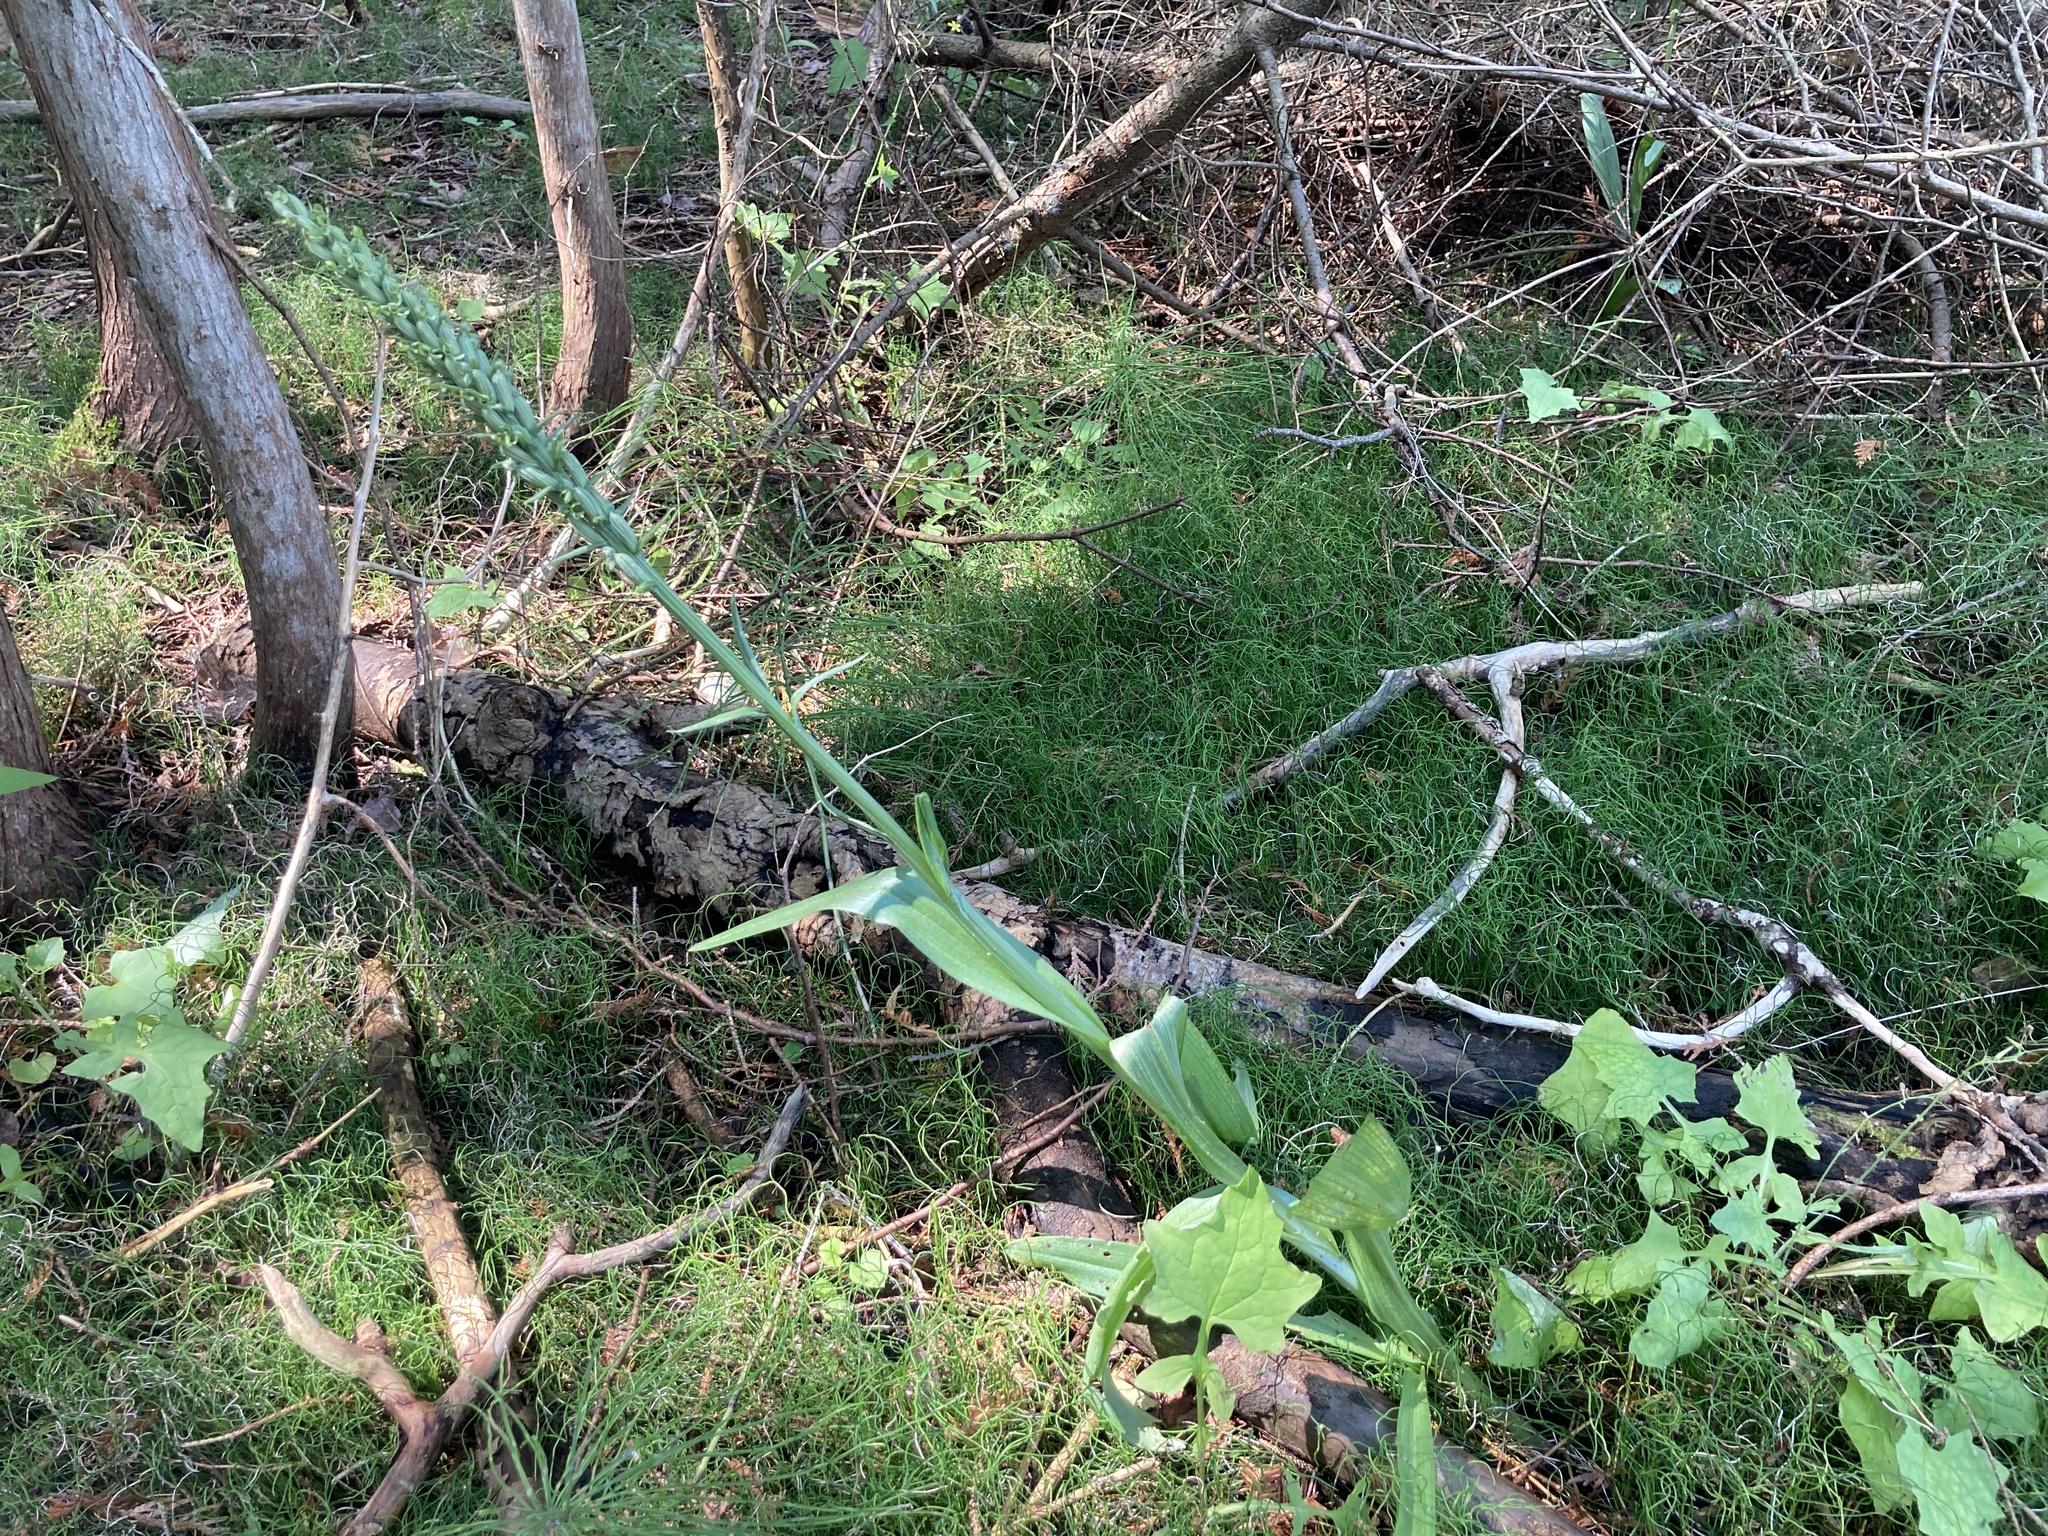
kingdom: Plantae
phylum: Tracheophyta
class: Liliopsida
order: Asparagales
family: Orchidaceae
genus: Platanthera
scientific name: Platanthera huronensis
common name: Fragrant green orchid
